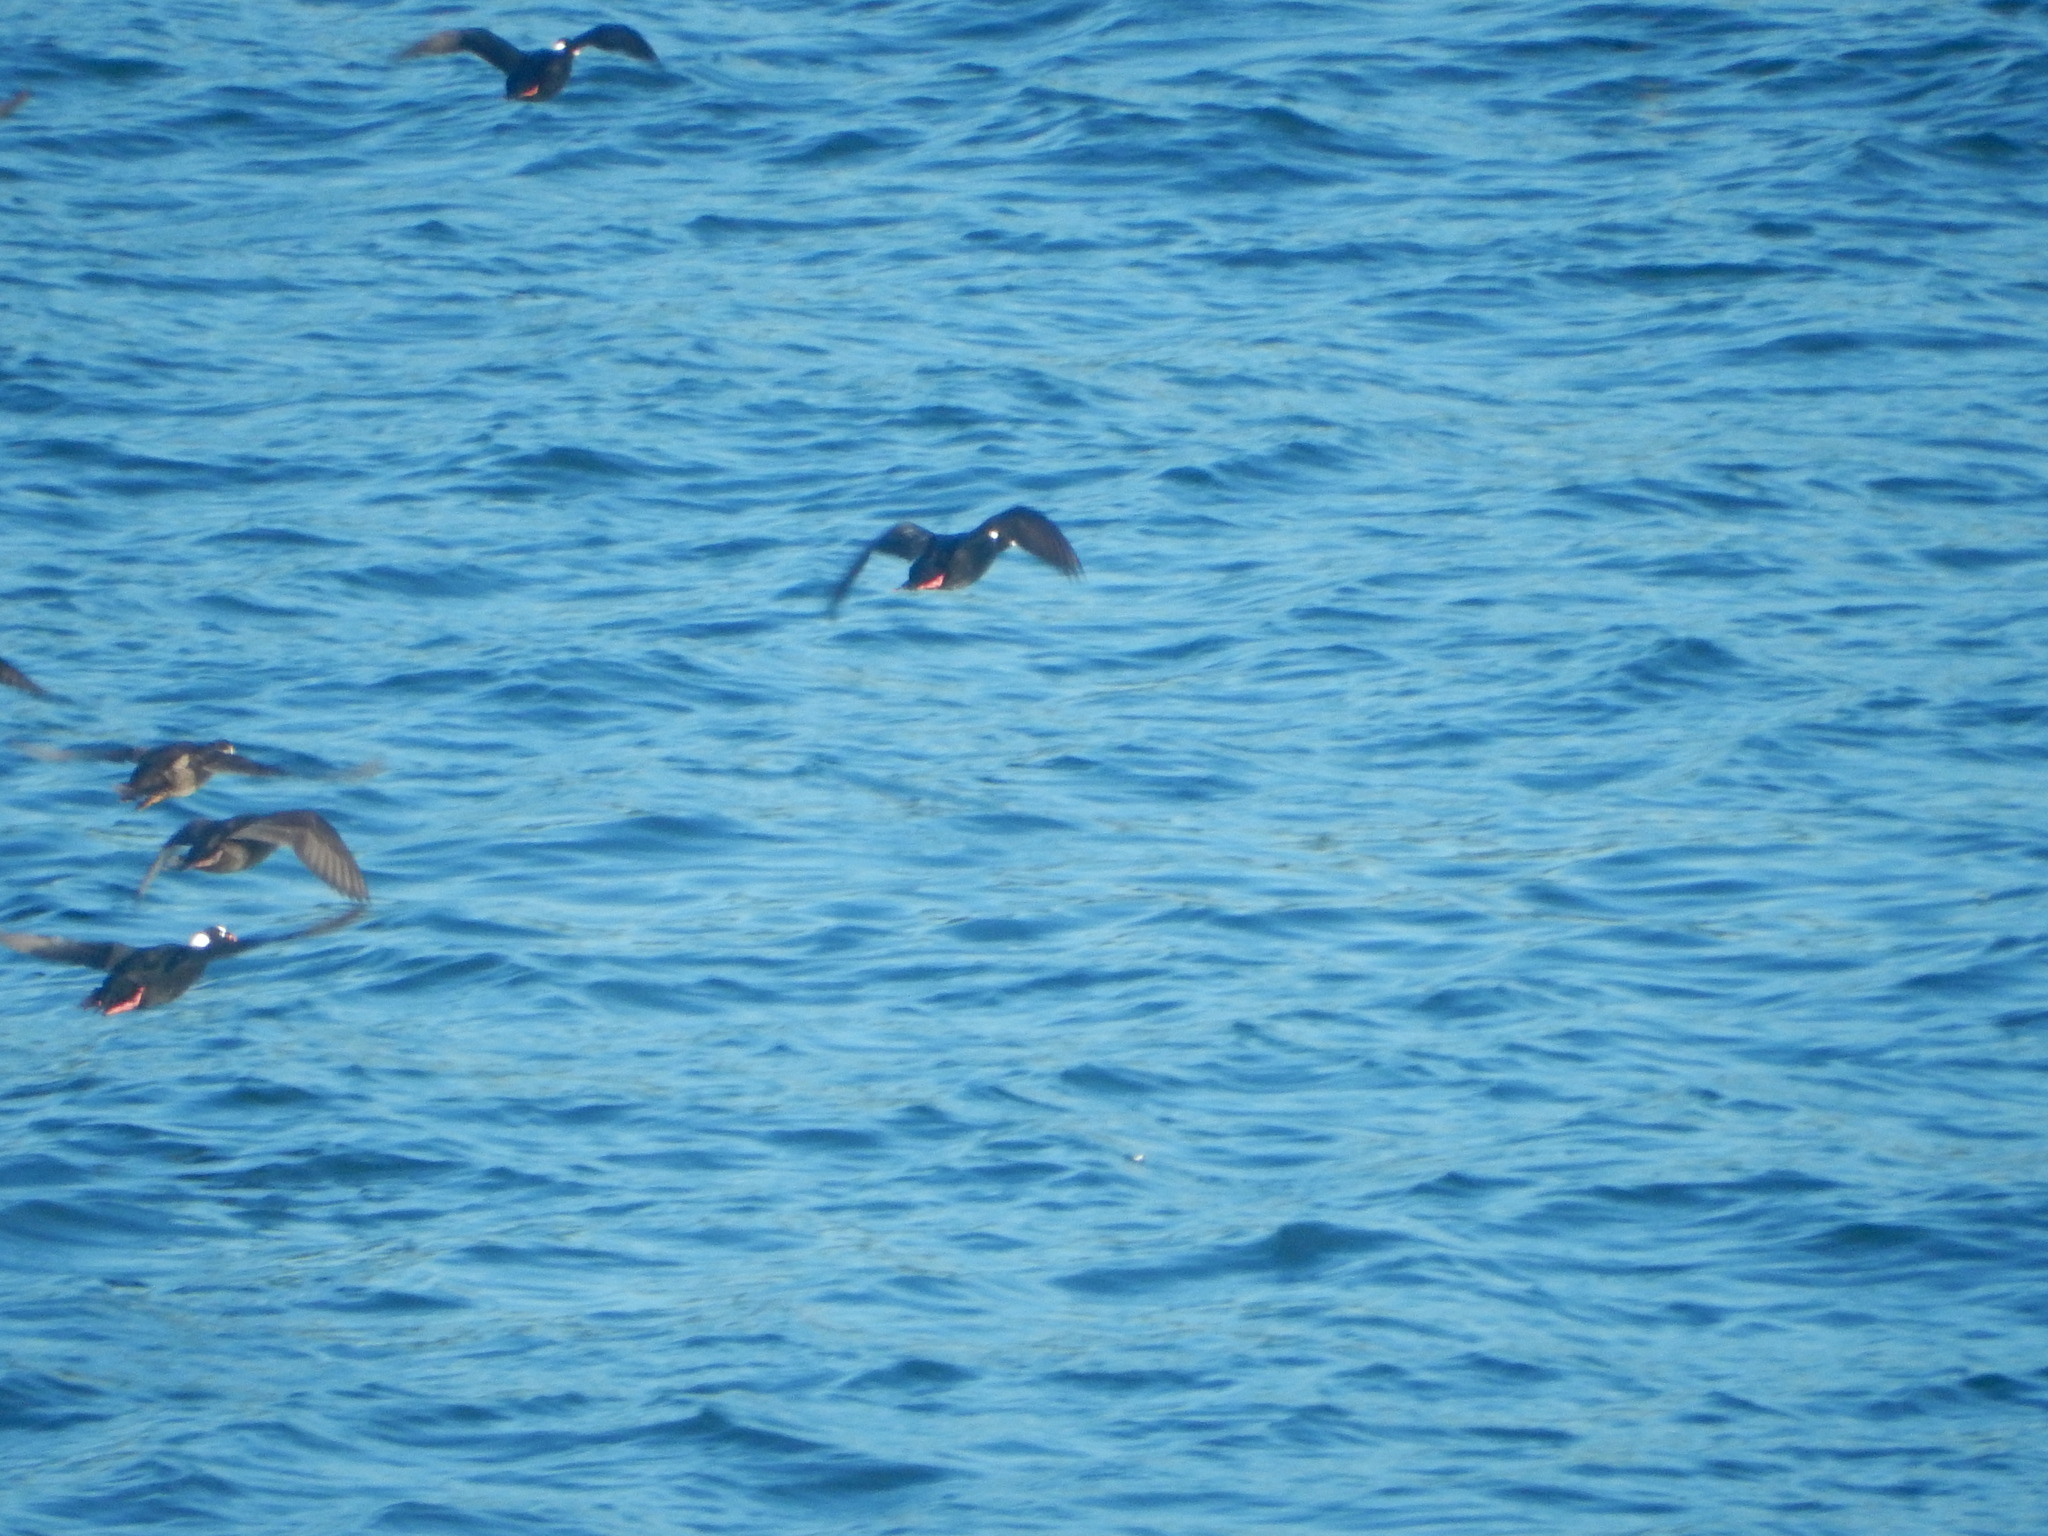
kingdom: Animalia
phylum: Chordata
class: Aves
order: Anseriformes
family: Anatidae
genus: Melanitta
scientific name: Melanitta perspicillata
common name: Surf scoter
